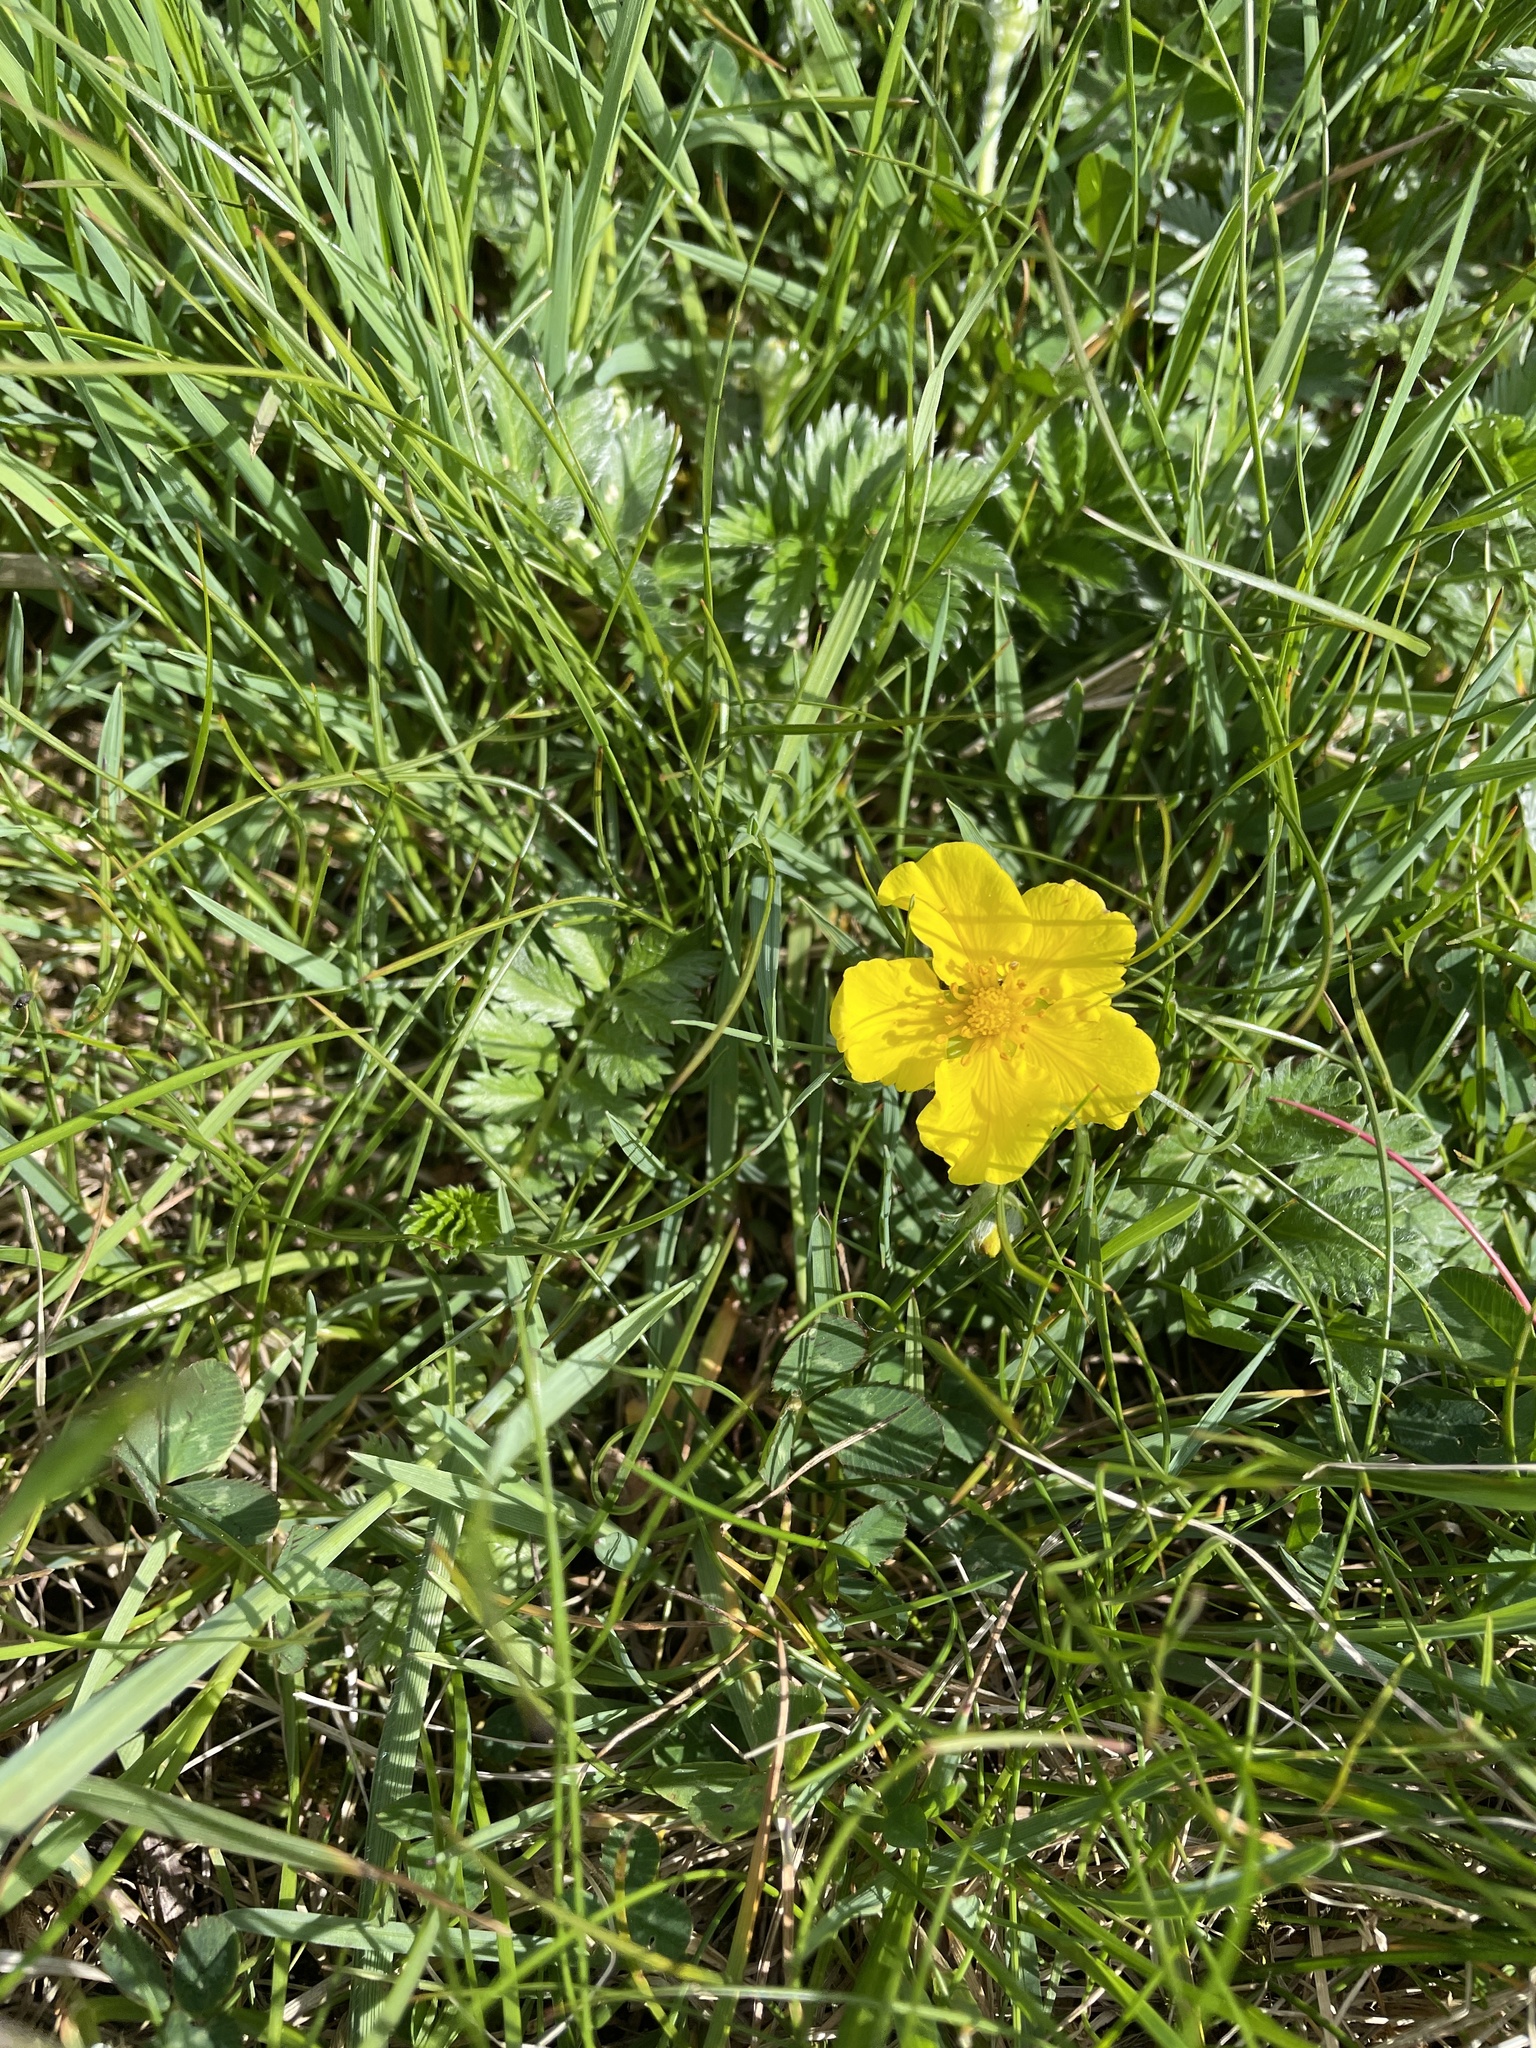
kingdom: Plantae
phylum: Tracheophyta
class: Magnoliopsida
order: Rosales
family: Rosaceae
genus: Argentina
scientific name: Argentina anserina
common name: Common silverweed
